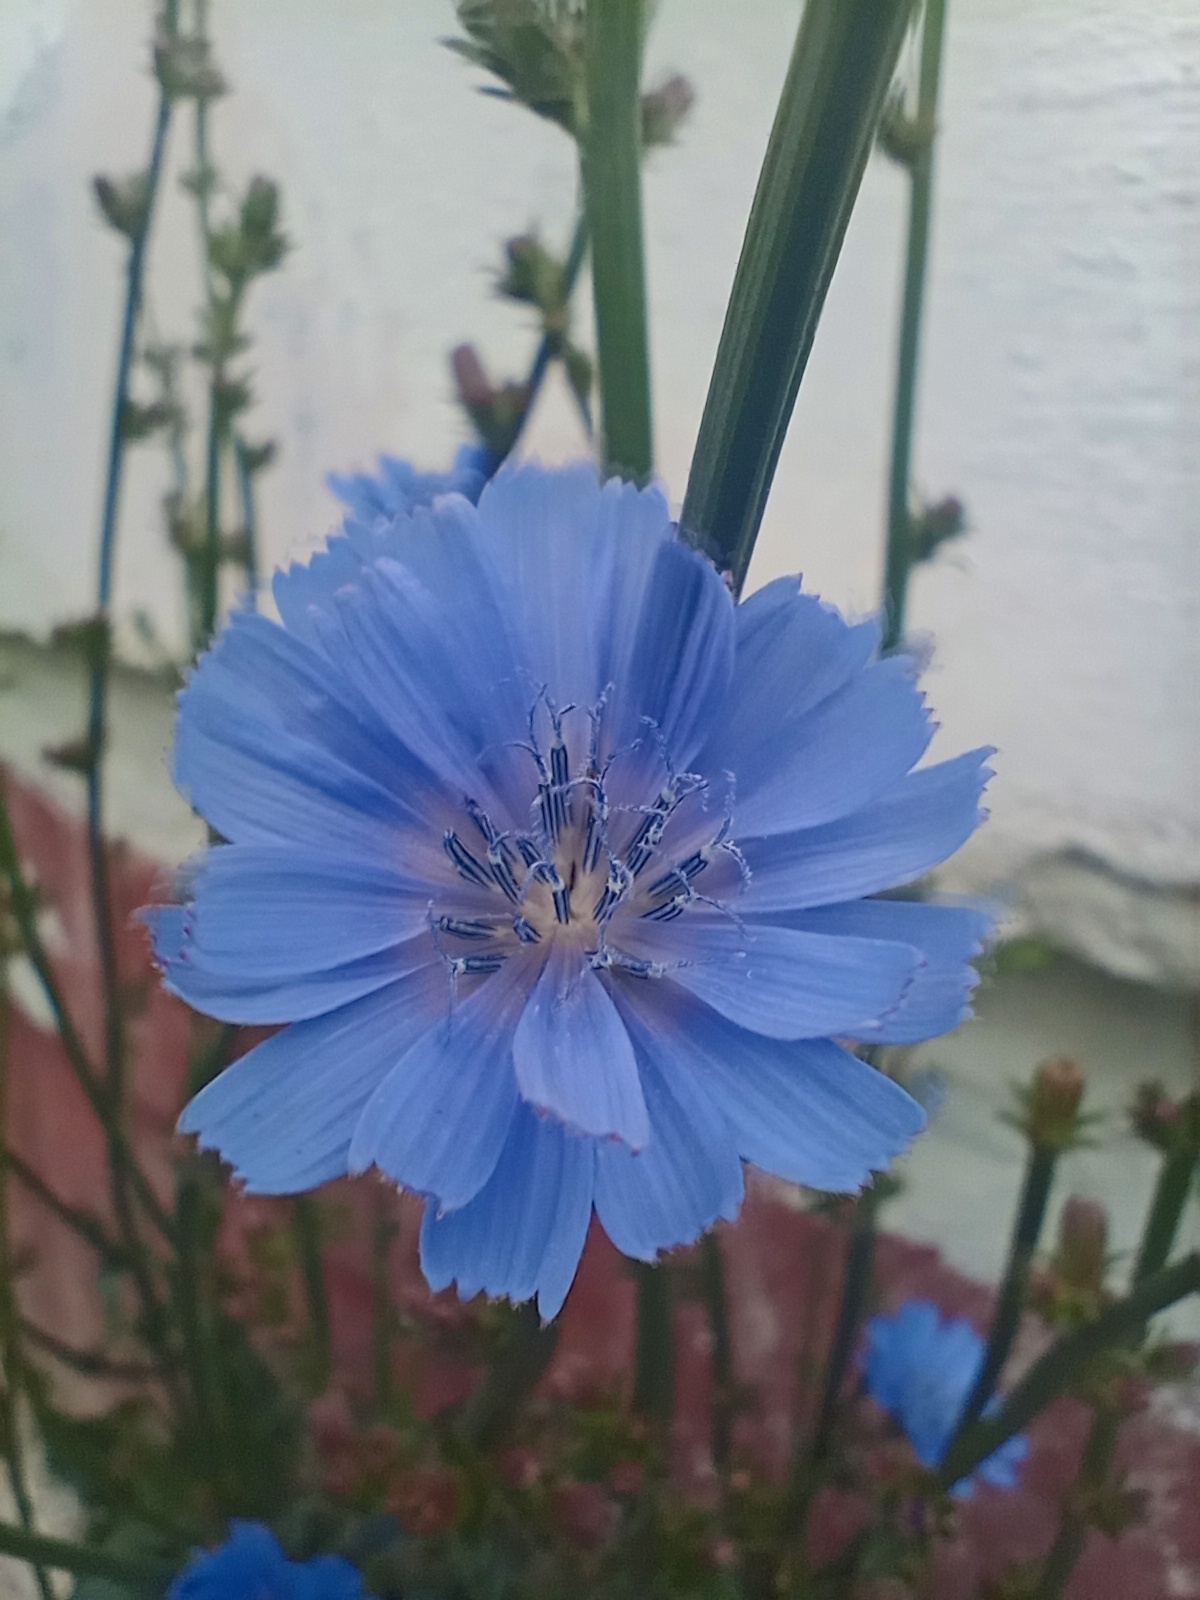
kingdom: Plantae
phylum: Tracheophyta
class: Magnoliopsida
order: Asterales
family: Asteraceae
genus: Cichorium
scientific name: Cichorium intybus
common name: Chicory
